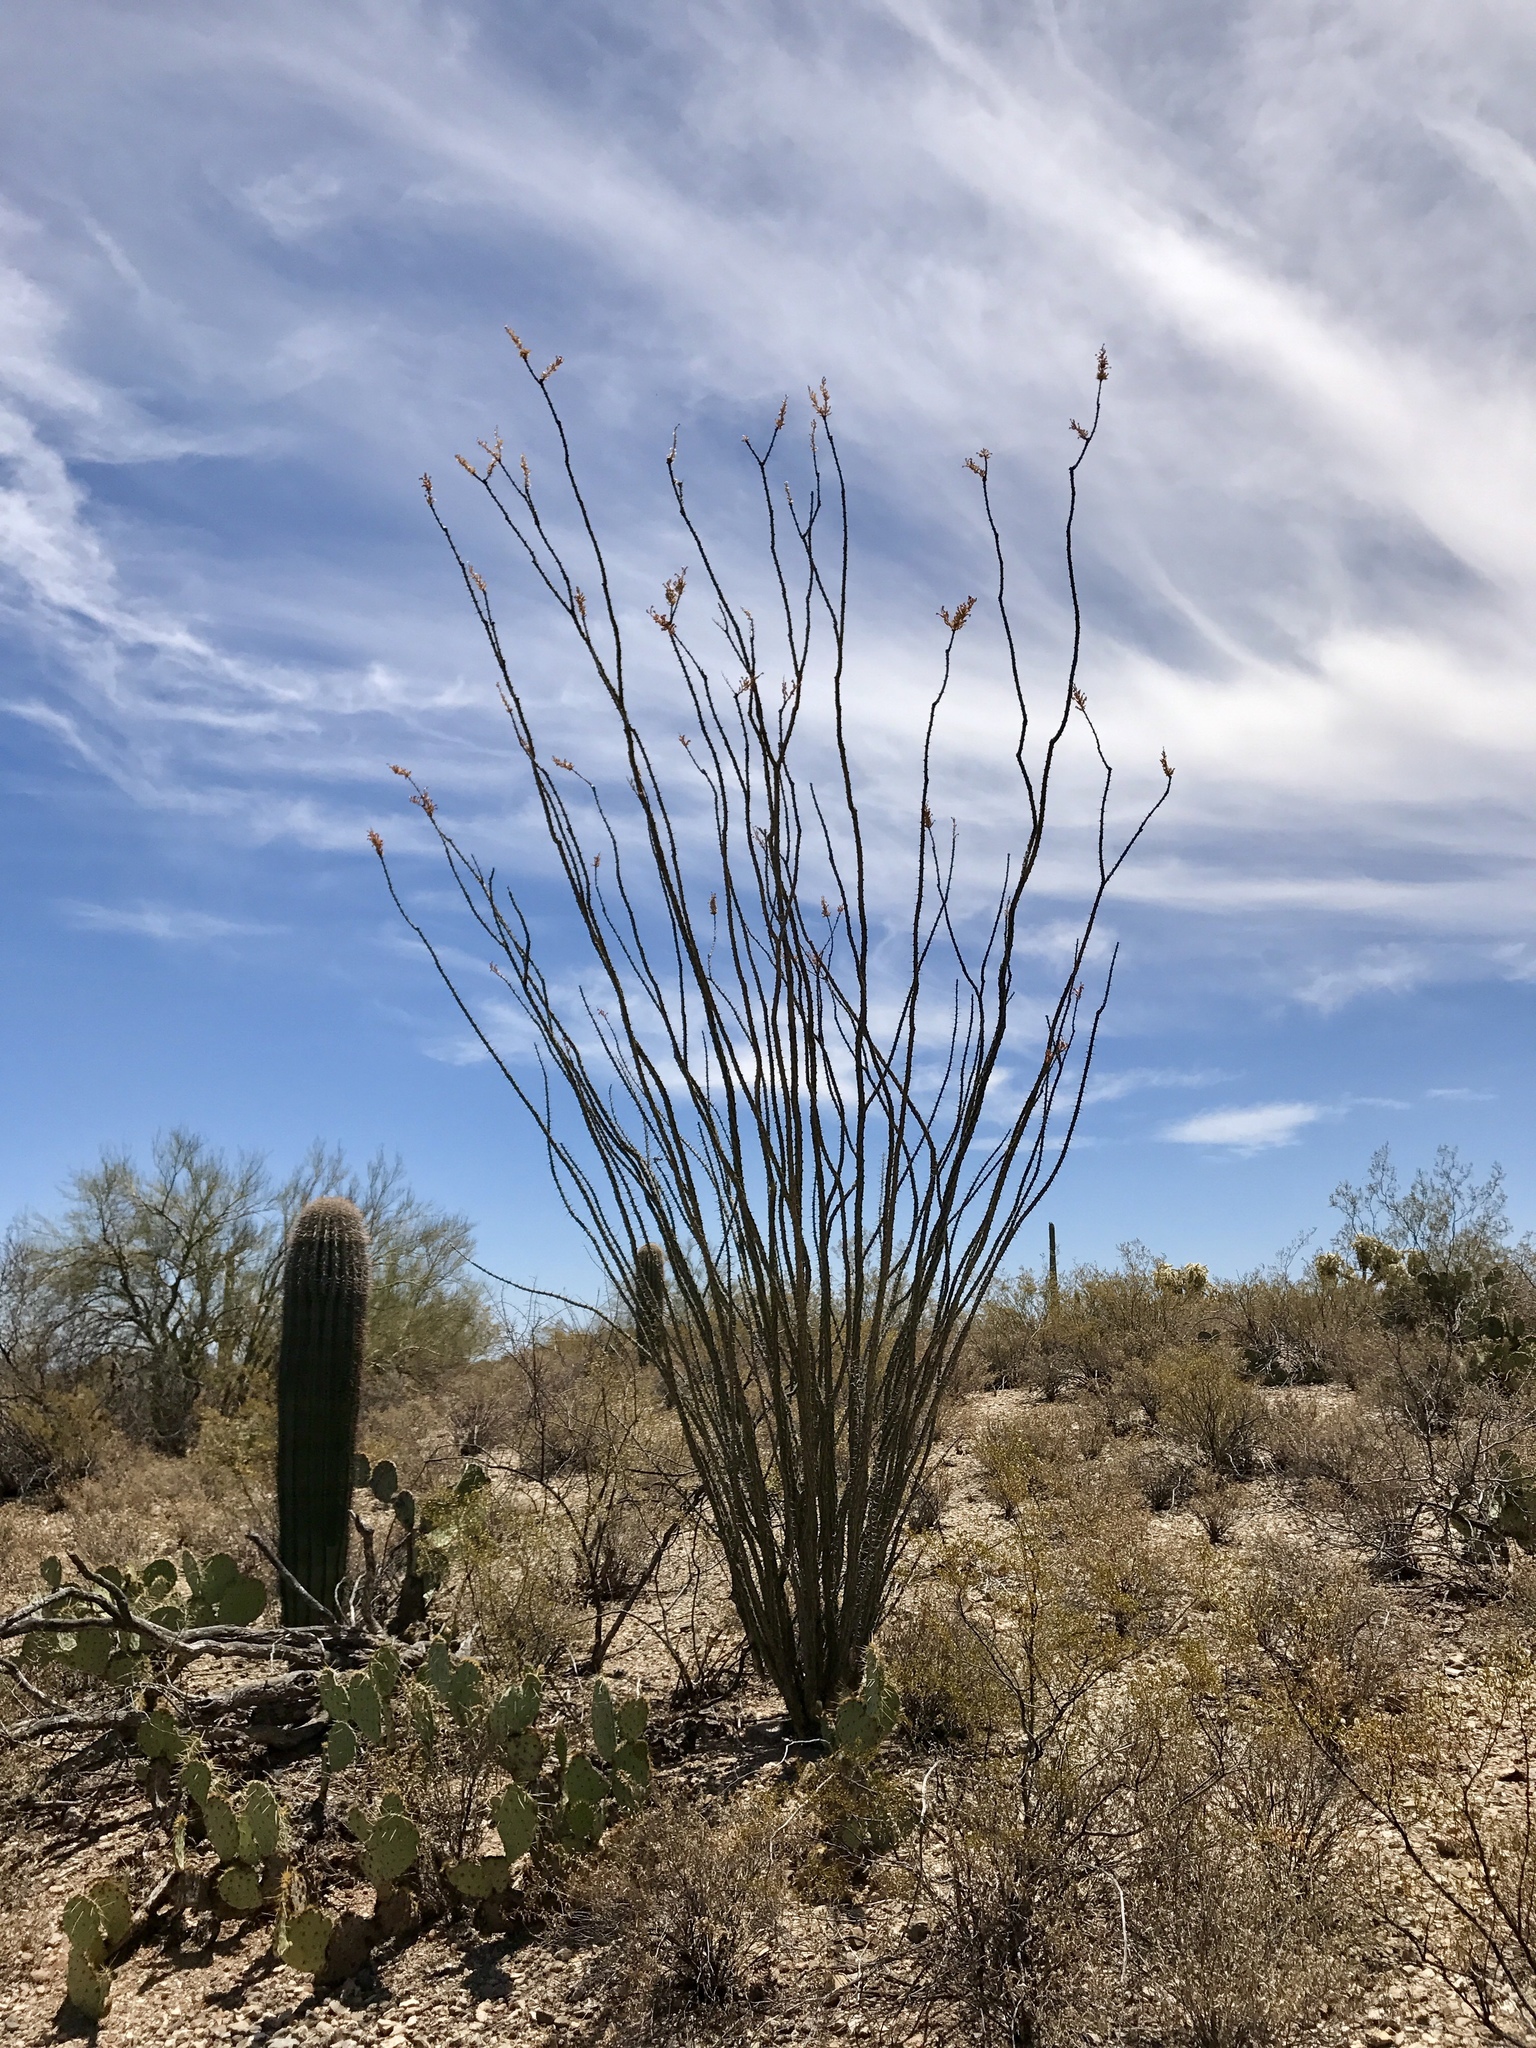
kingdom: Plantae
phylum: Tracheophyta
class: Magnoliopsida
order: Ericales
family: Fouquieriaceae
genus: Fouquieria
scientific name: Fouquieria splendens
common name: Vine-cactus
